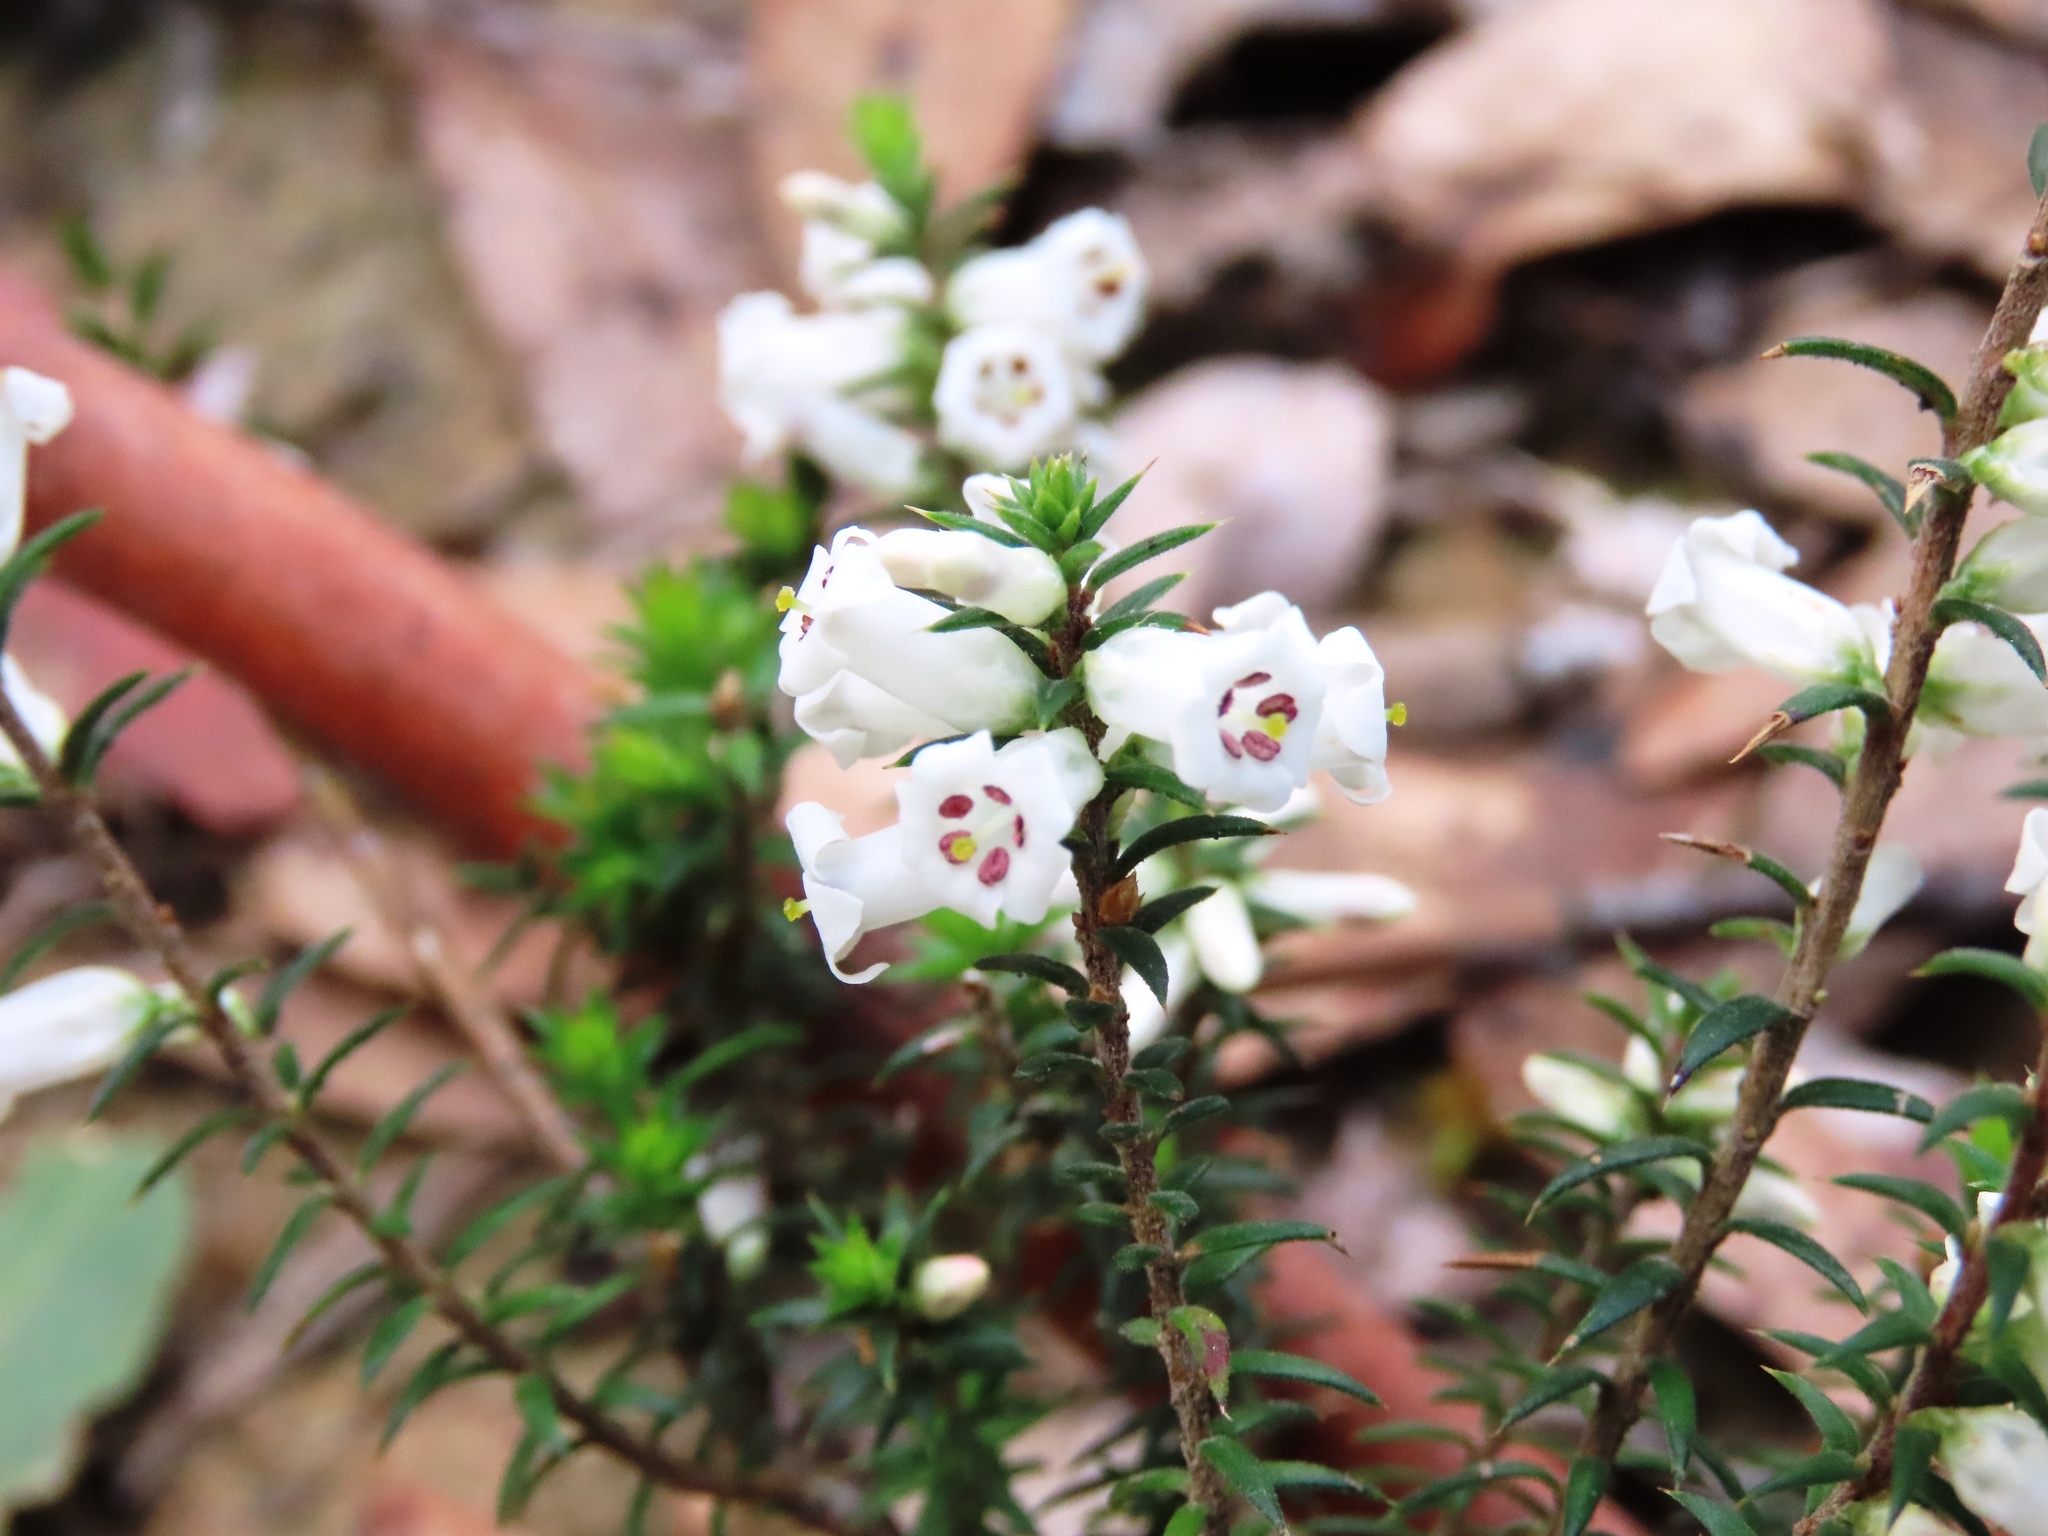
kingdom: Plantae
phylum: Tracheophyta
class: Magnoliopsida
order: Ericales
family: Ericaceae
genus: Epacris
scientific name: Epacris impressa
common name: Common-heath
